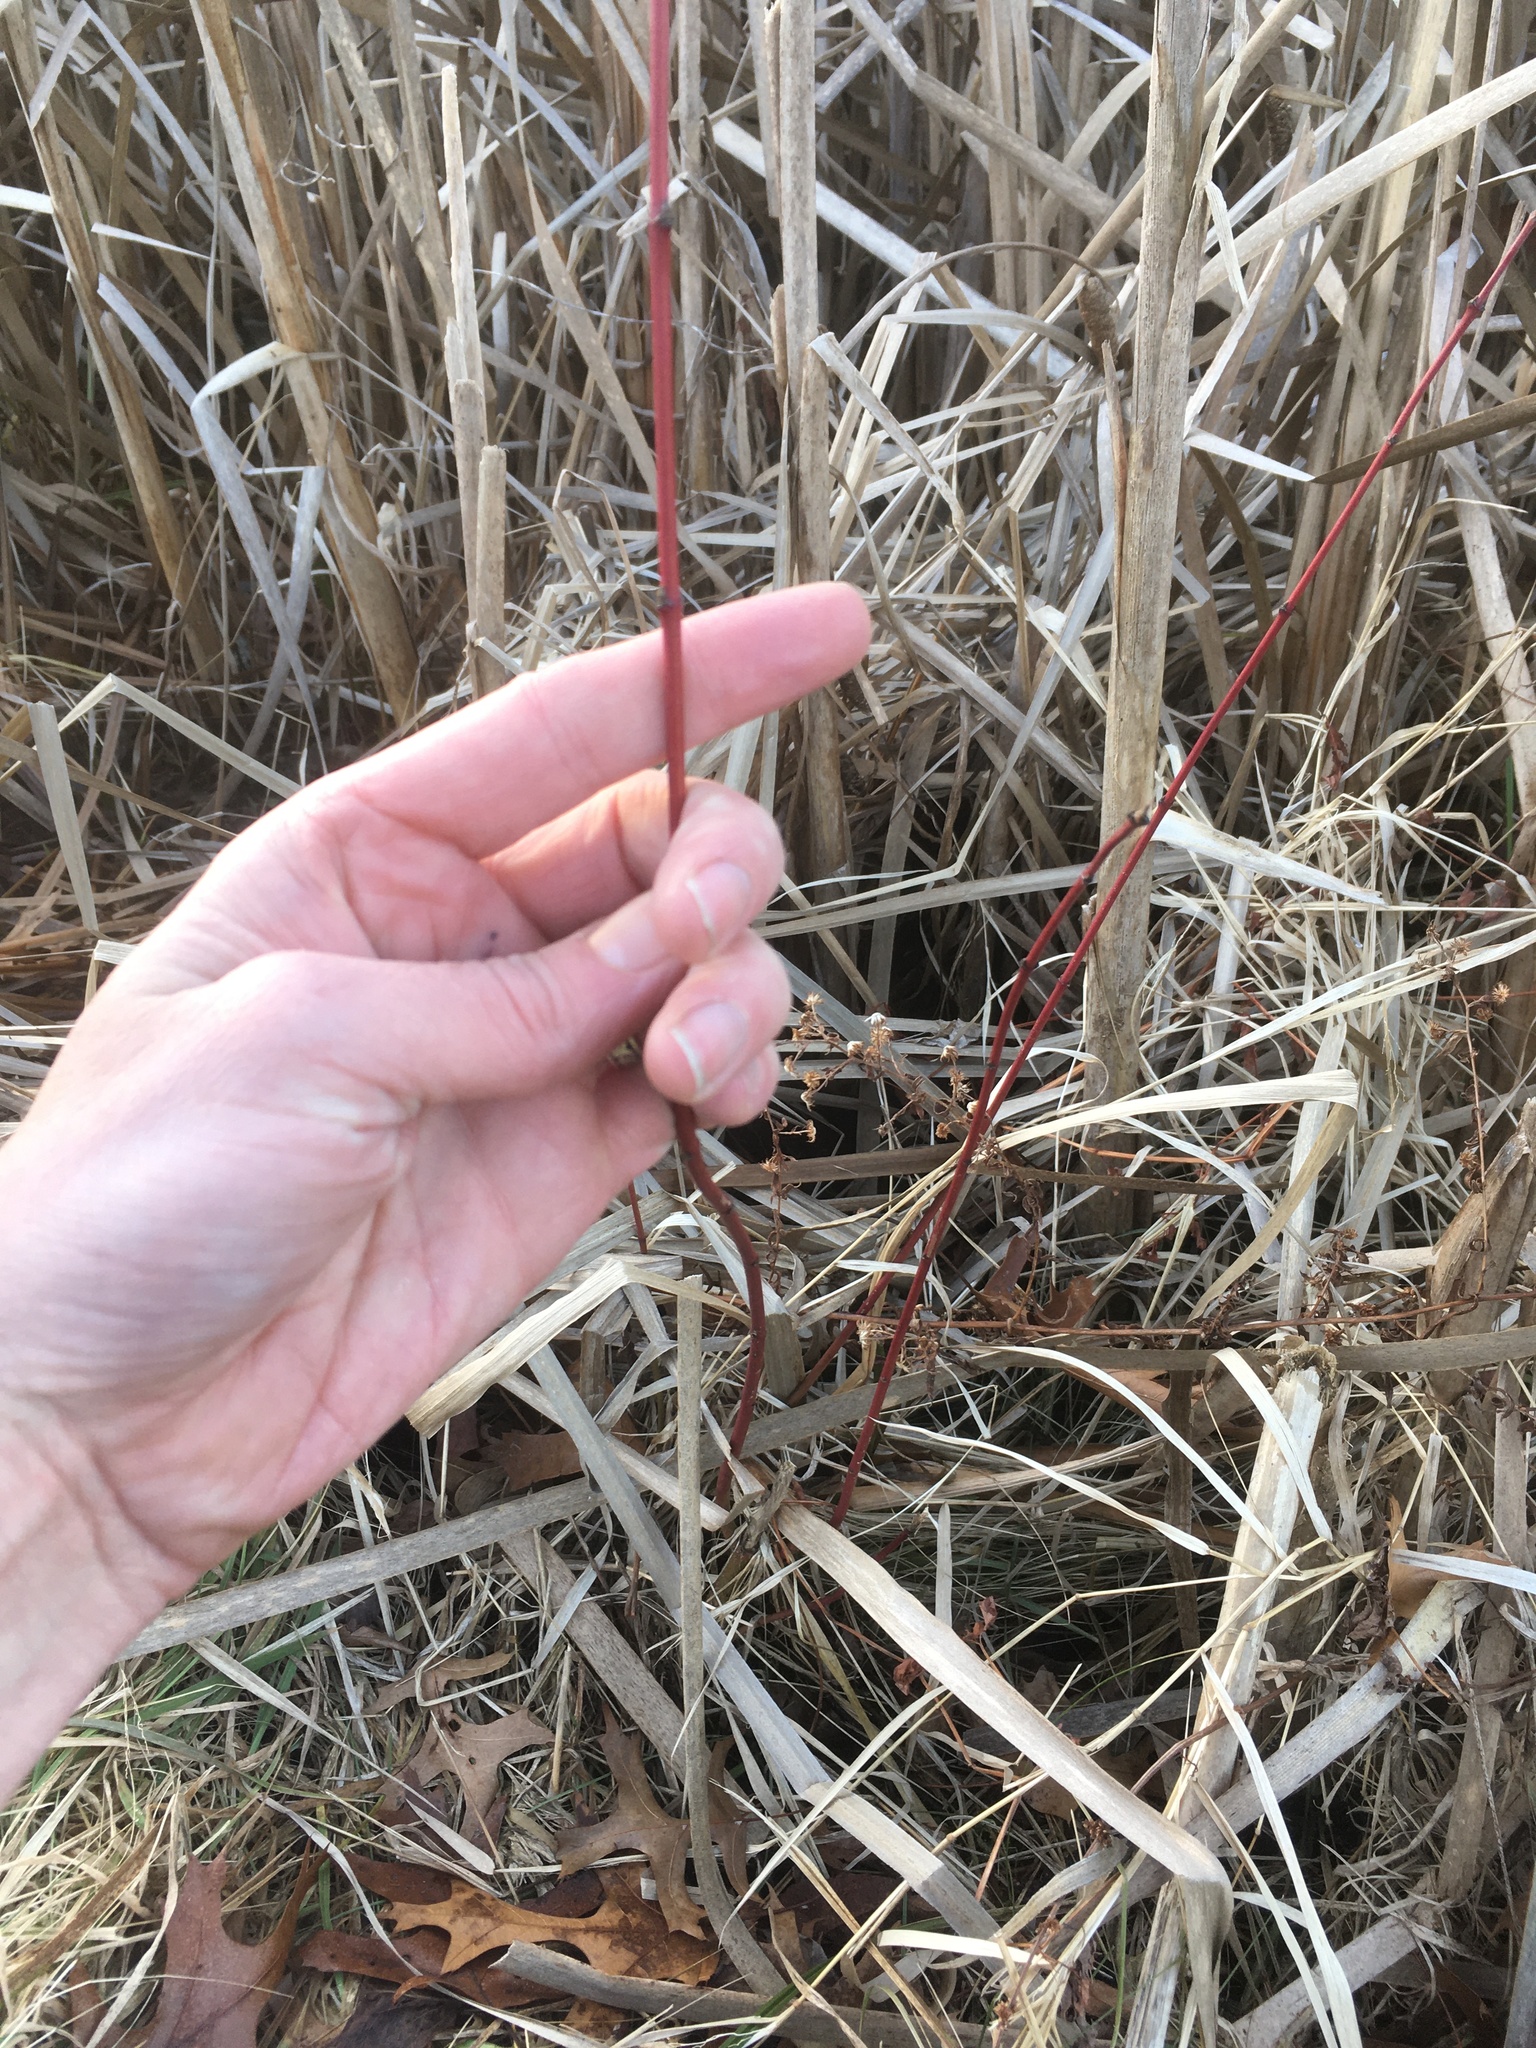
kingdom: Plantae
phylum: Tracheophyta
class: Magnoliopsida
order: Cornales
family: Cornaceae
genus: Cornus
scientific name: Cornus sericea
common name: Red-osier dogwood
